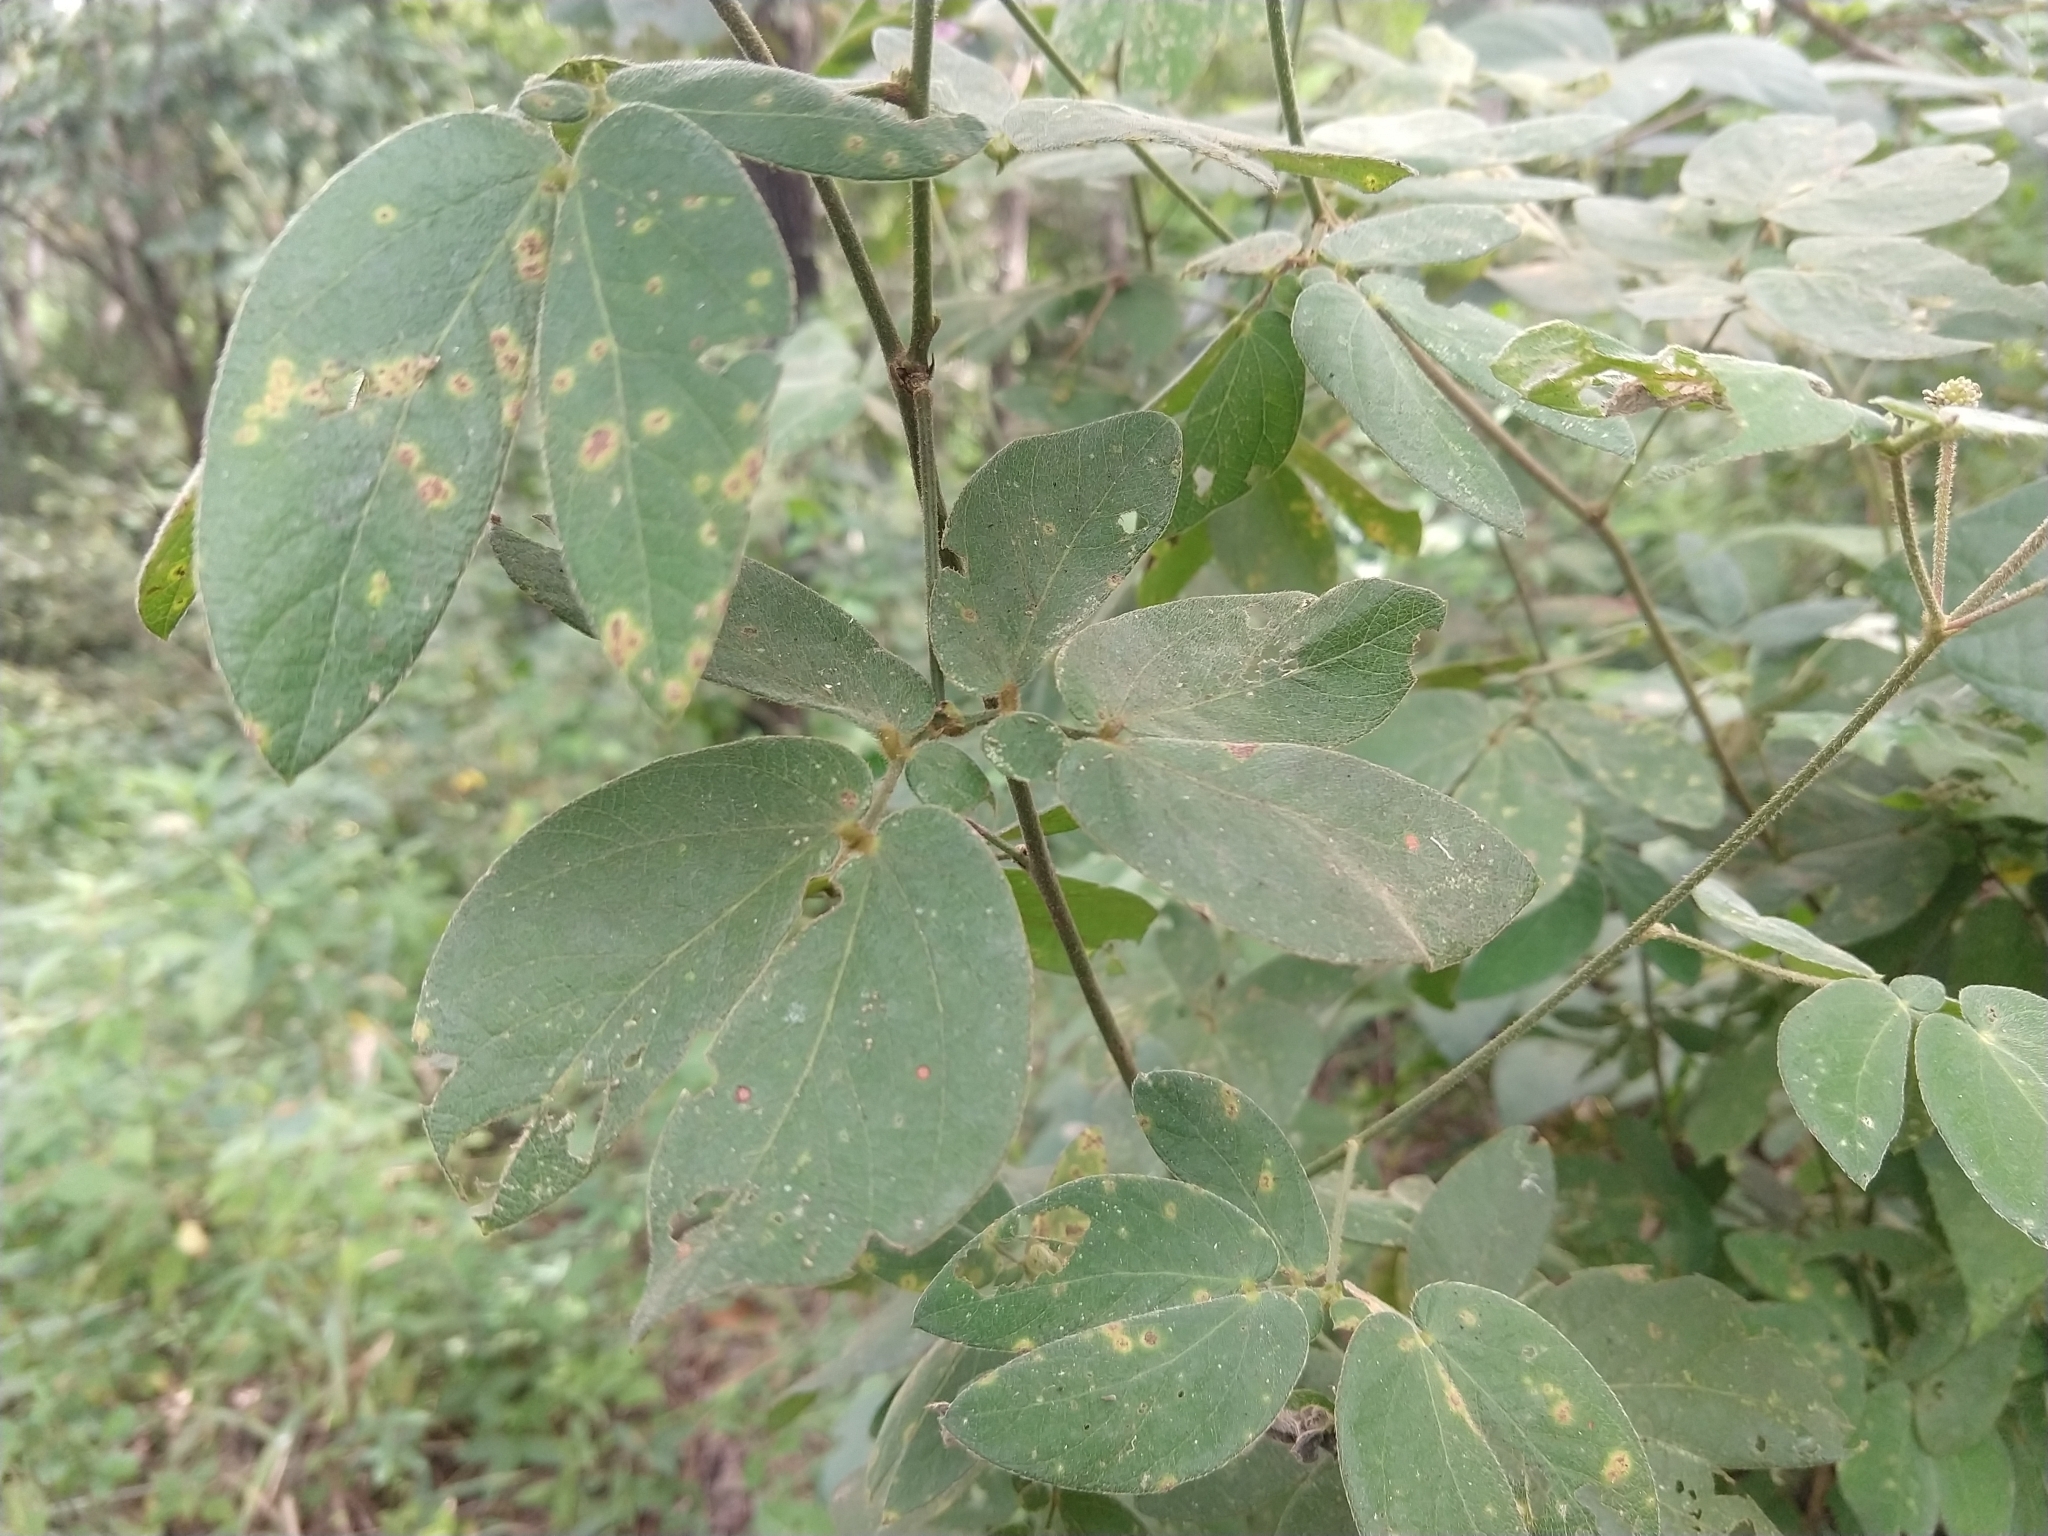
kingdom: Plantae
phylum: Tracheophyta
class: Magnoliopsida
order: Fabales
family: Fabaceae
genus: Mimosa
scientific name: Mimosa albida
